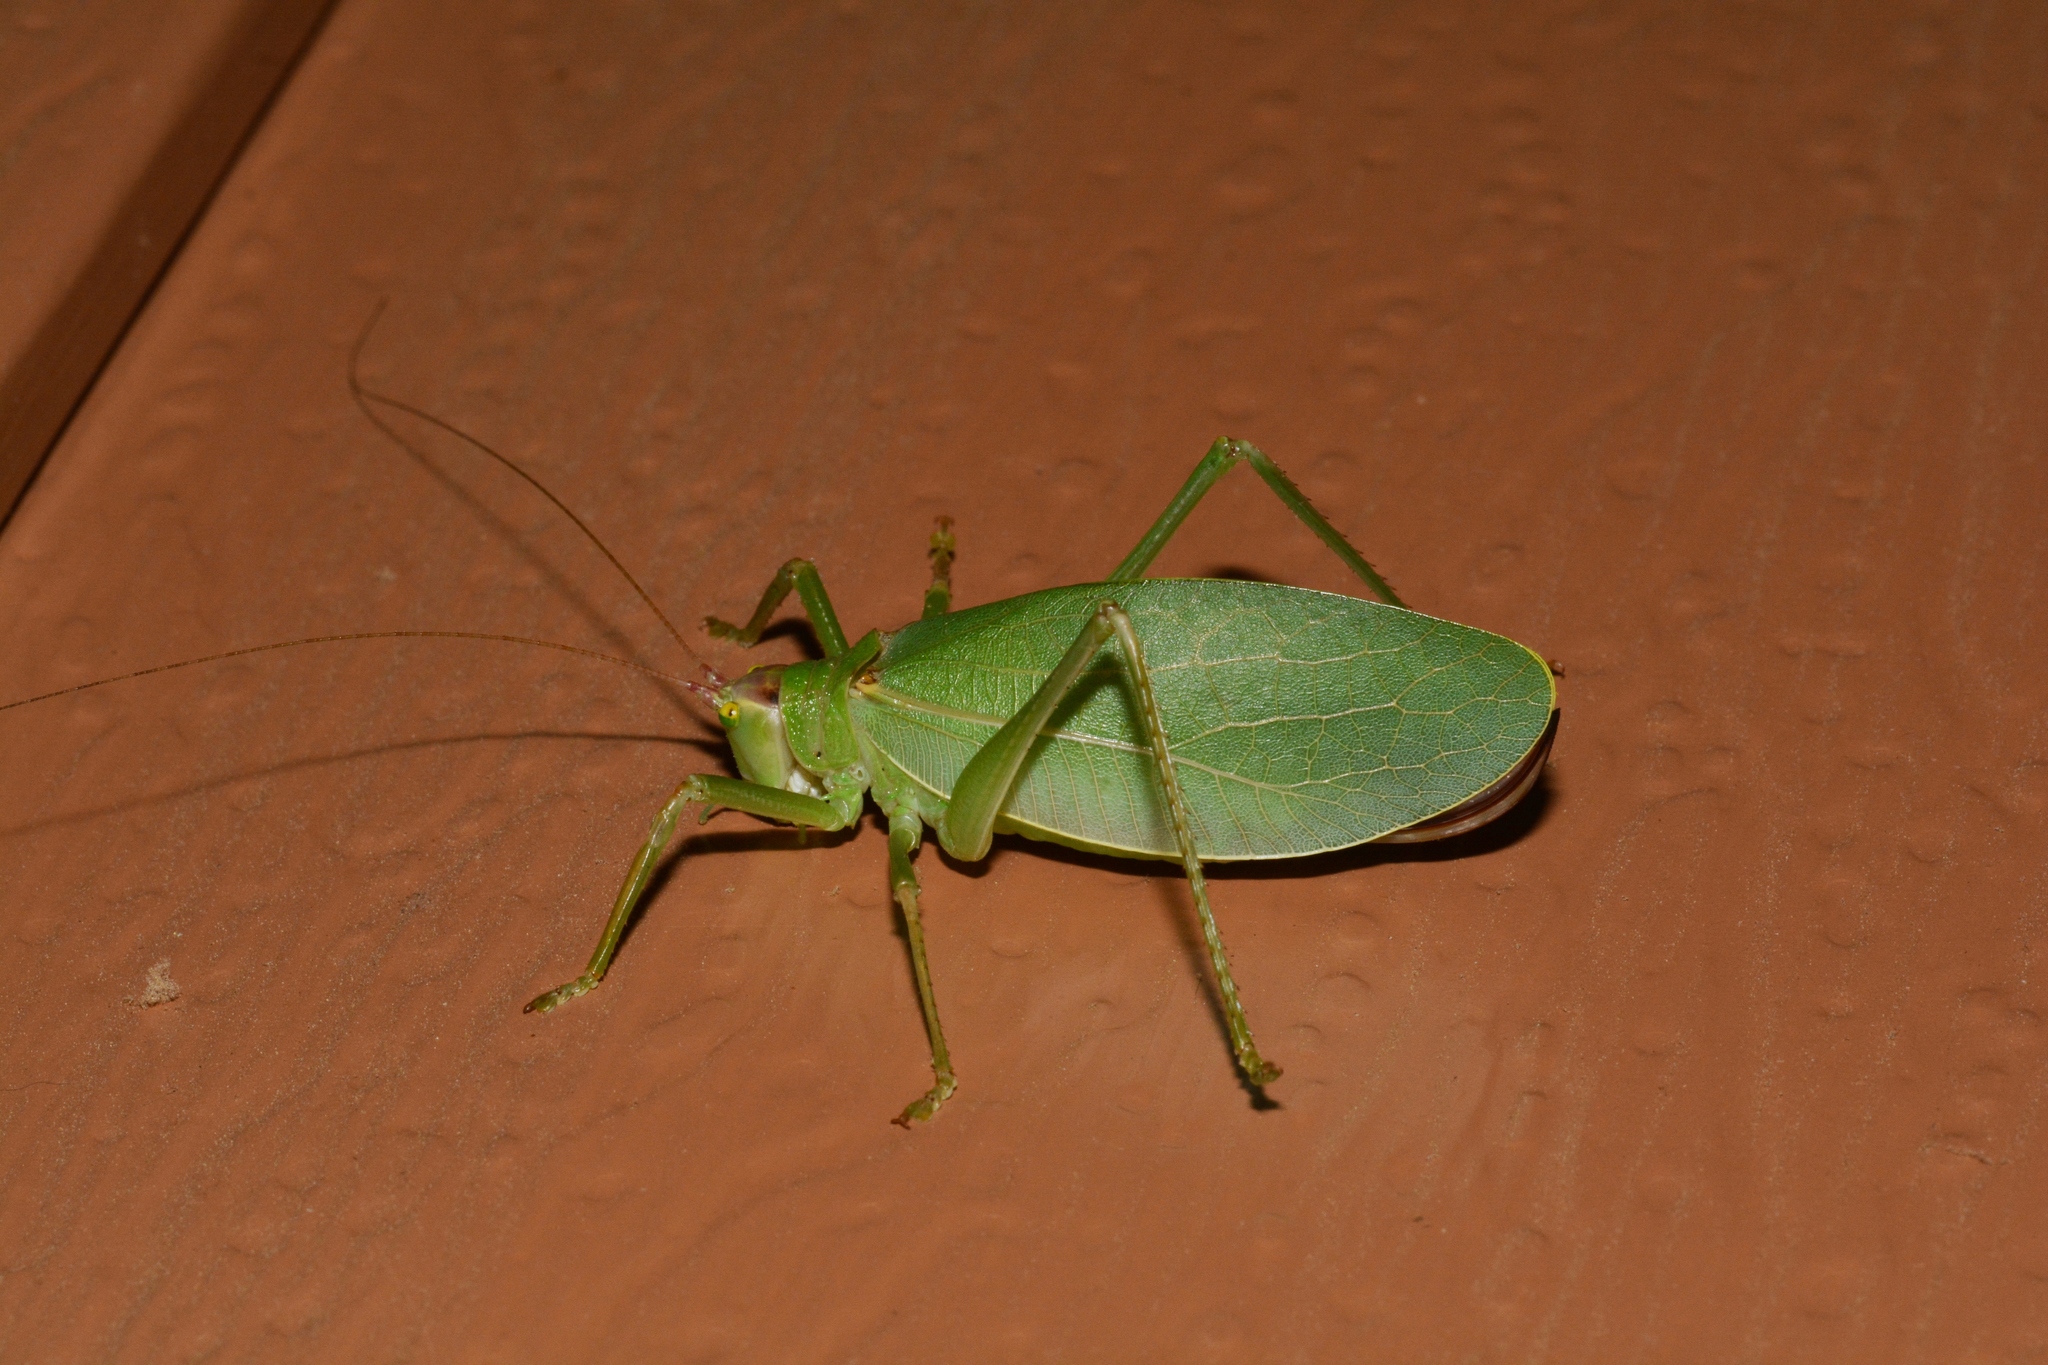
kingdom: Animalia
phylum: Arthropoda
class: Insecta
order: Orthoptera
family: Tettigoniidae
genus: Pterophylla
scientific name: Pterophylla camellifolia
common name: Common true katydid
